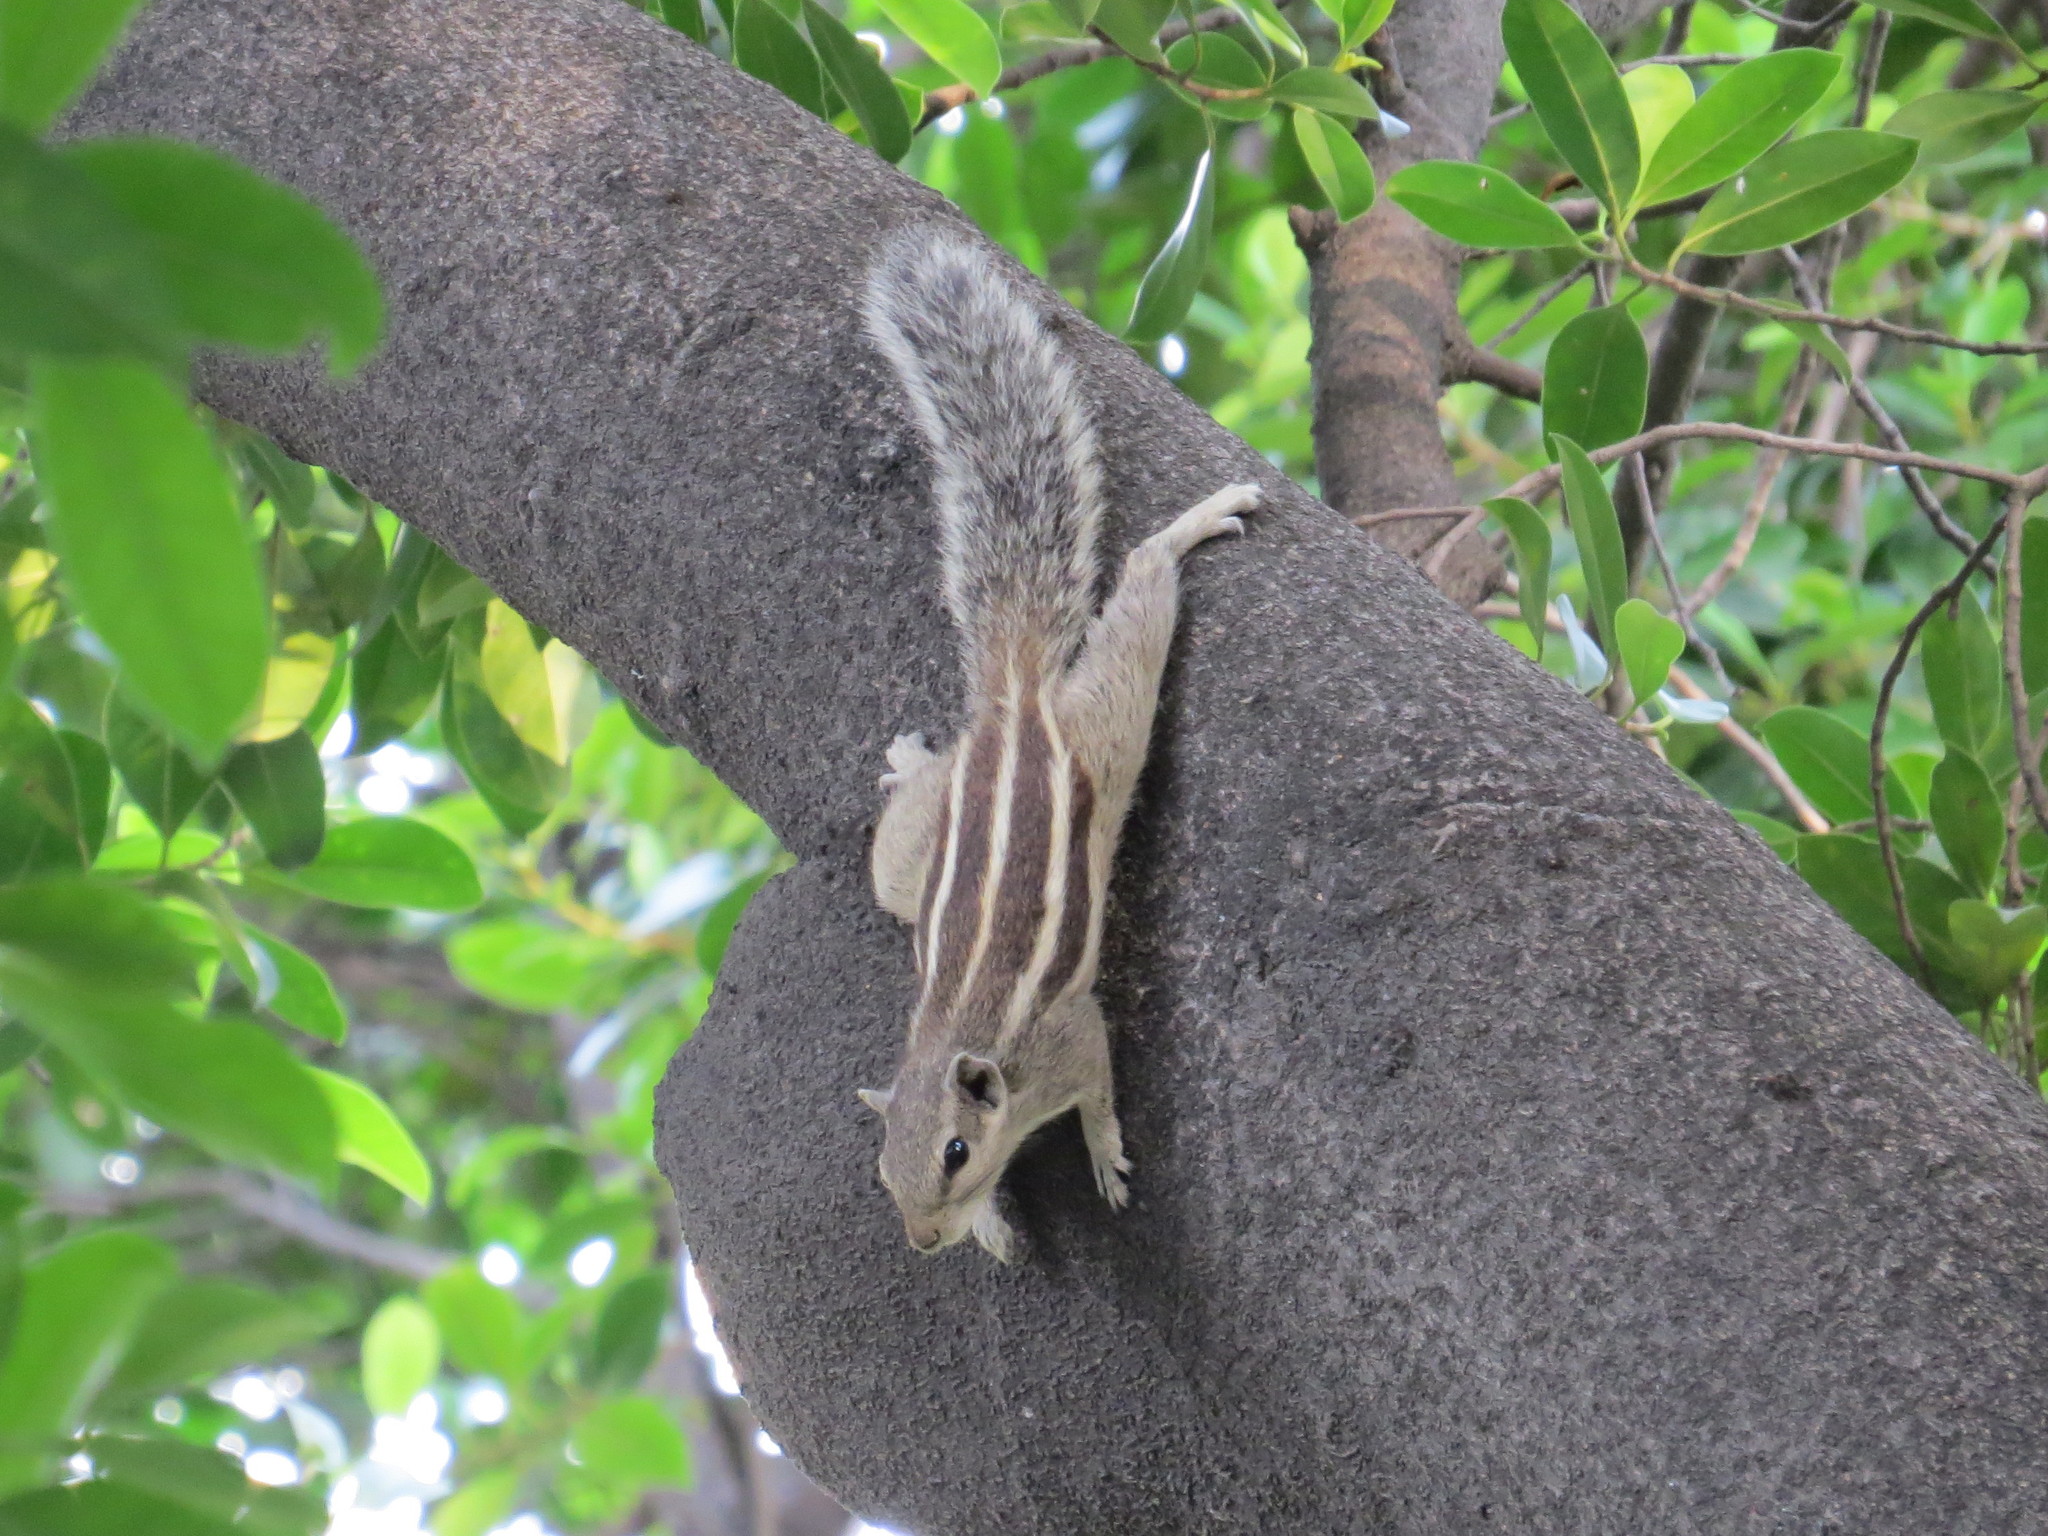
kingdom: Animalia
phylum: Chordata
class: Mammalia
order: Rodentia
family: Sciuridae
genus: Funambulus
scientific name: Funambulus pennantii
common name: Northern palm squirrel
